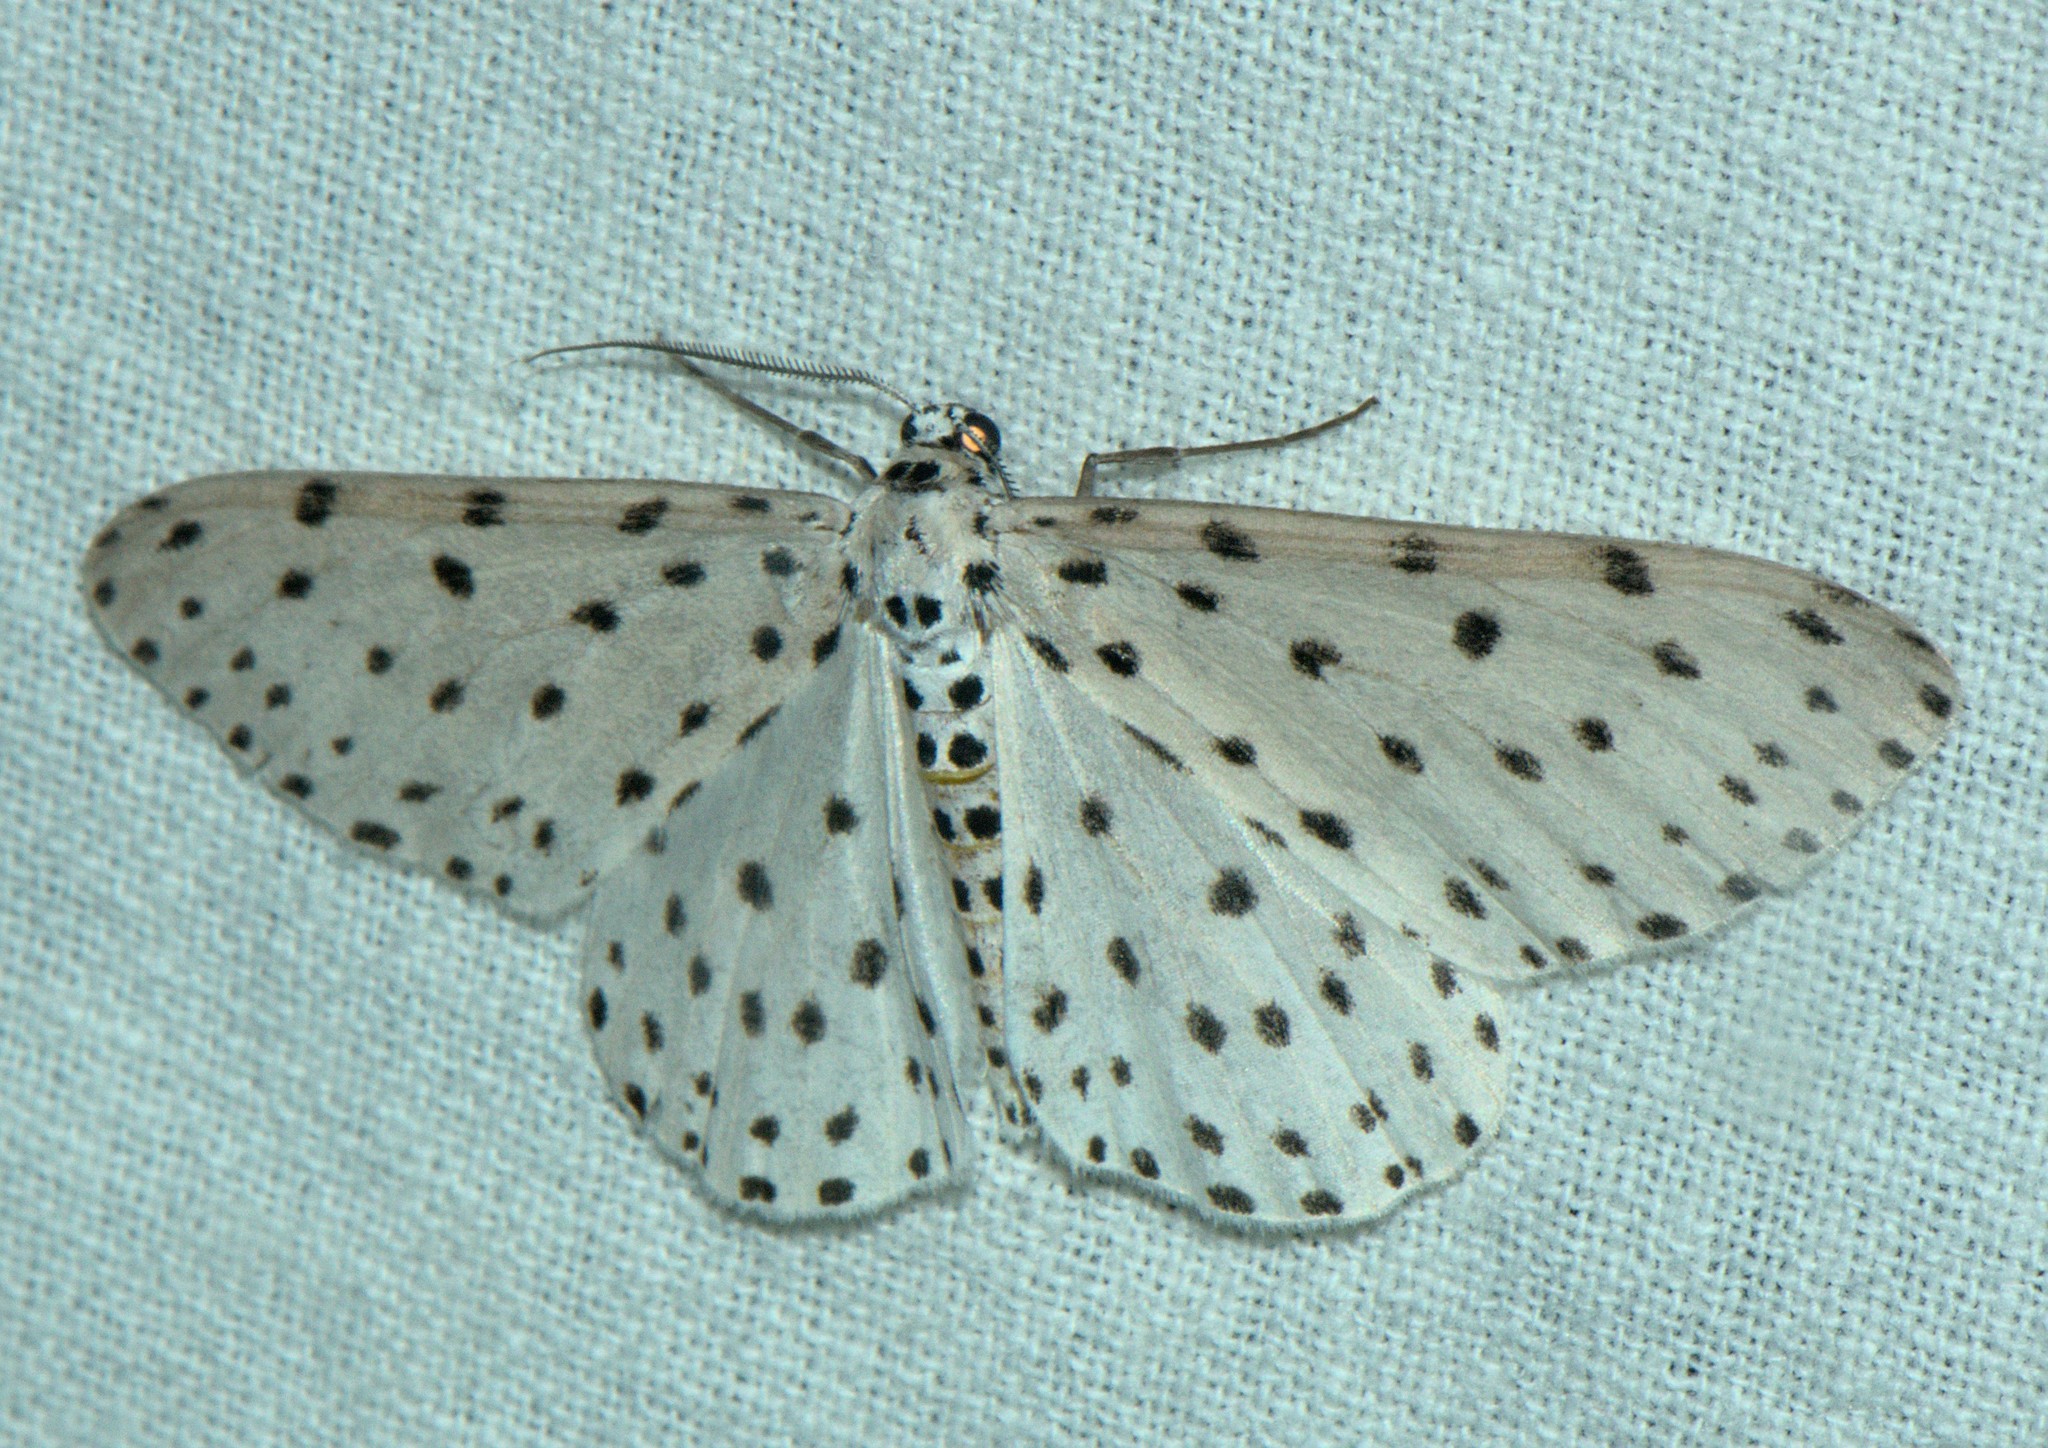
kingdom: Animalia
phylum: Arthropoda
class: Insecta
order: Lepidoptera
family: Geometridae
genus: Antipercnia
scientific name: Antipercnia belluaria
